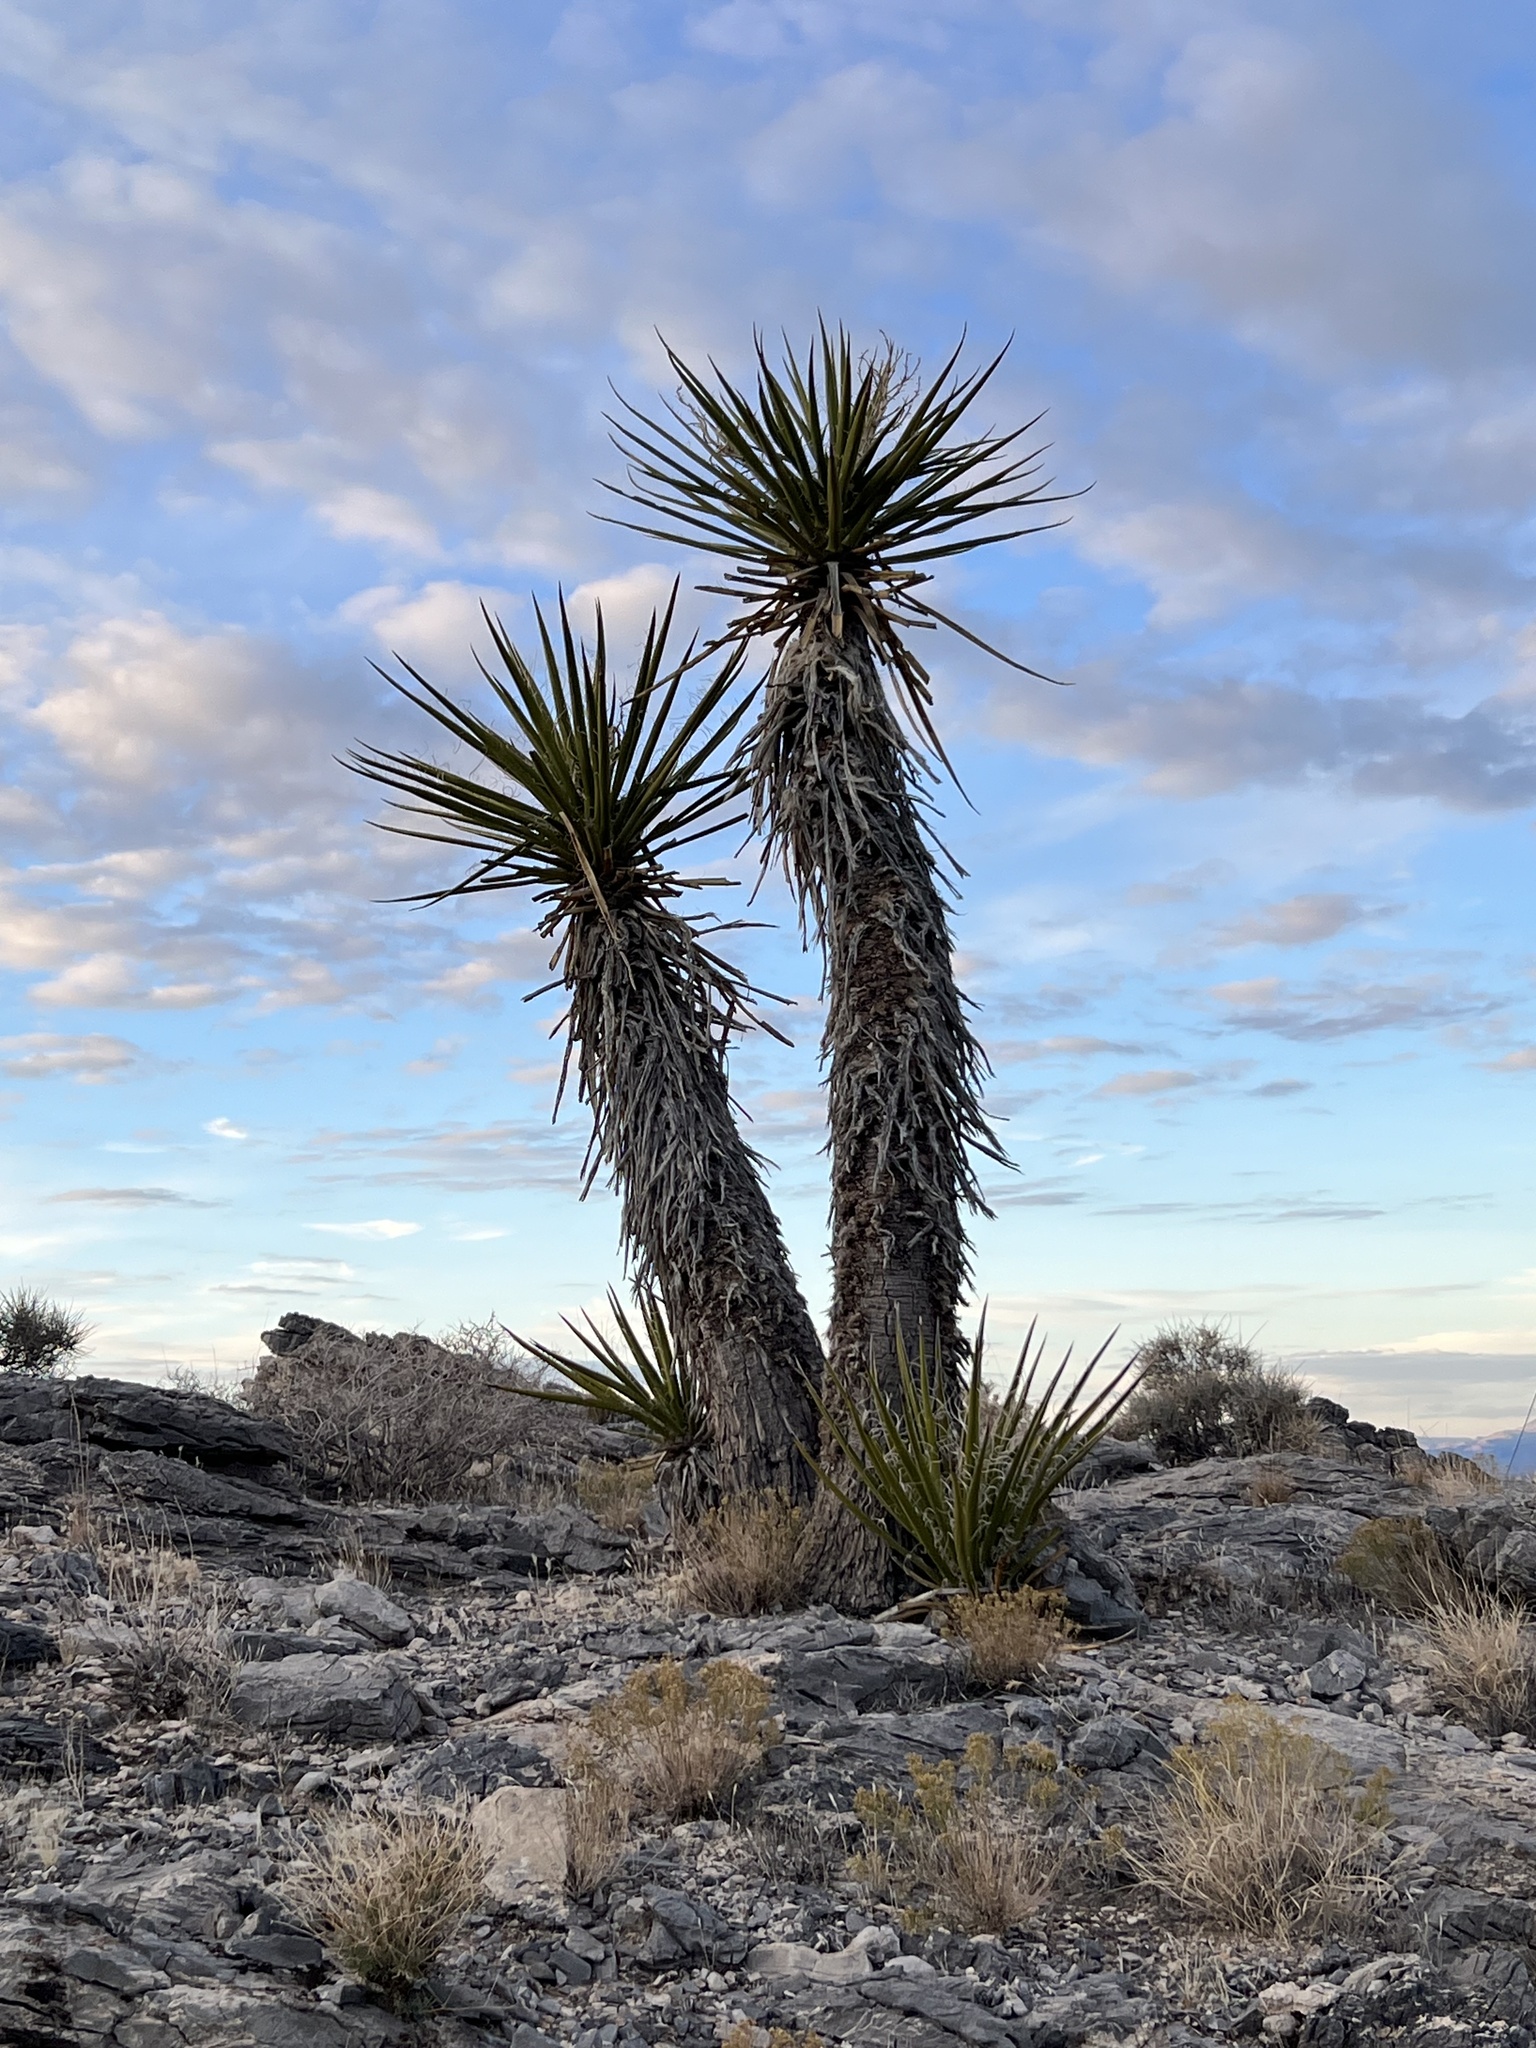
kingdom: Plantae
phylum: Tracheophyta
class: Liliopsida
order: Asparagales
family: Asparagaceae
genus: Yucca
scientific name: Yucca schidigera
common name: Mojave yucca
